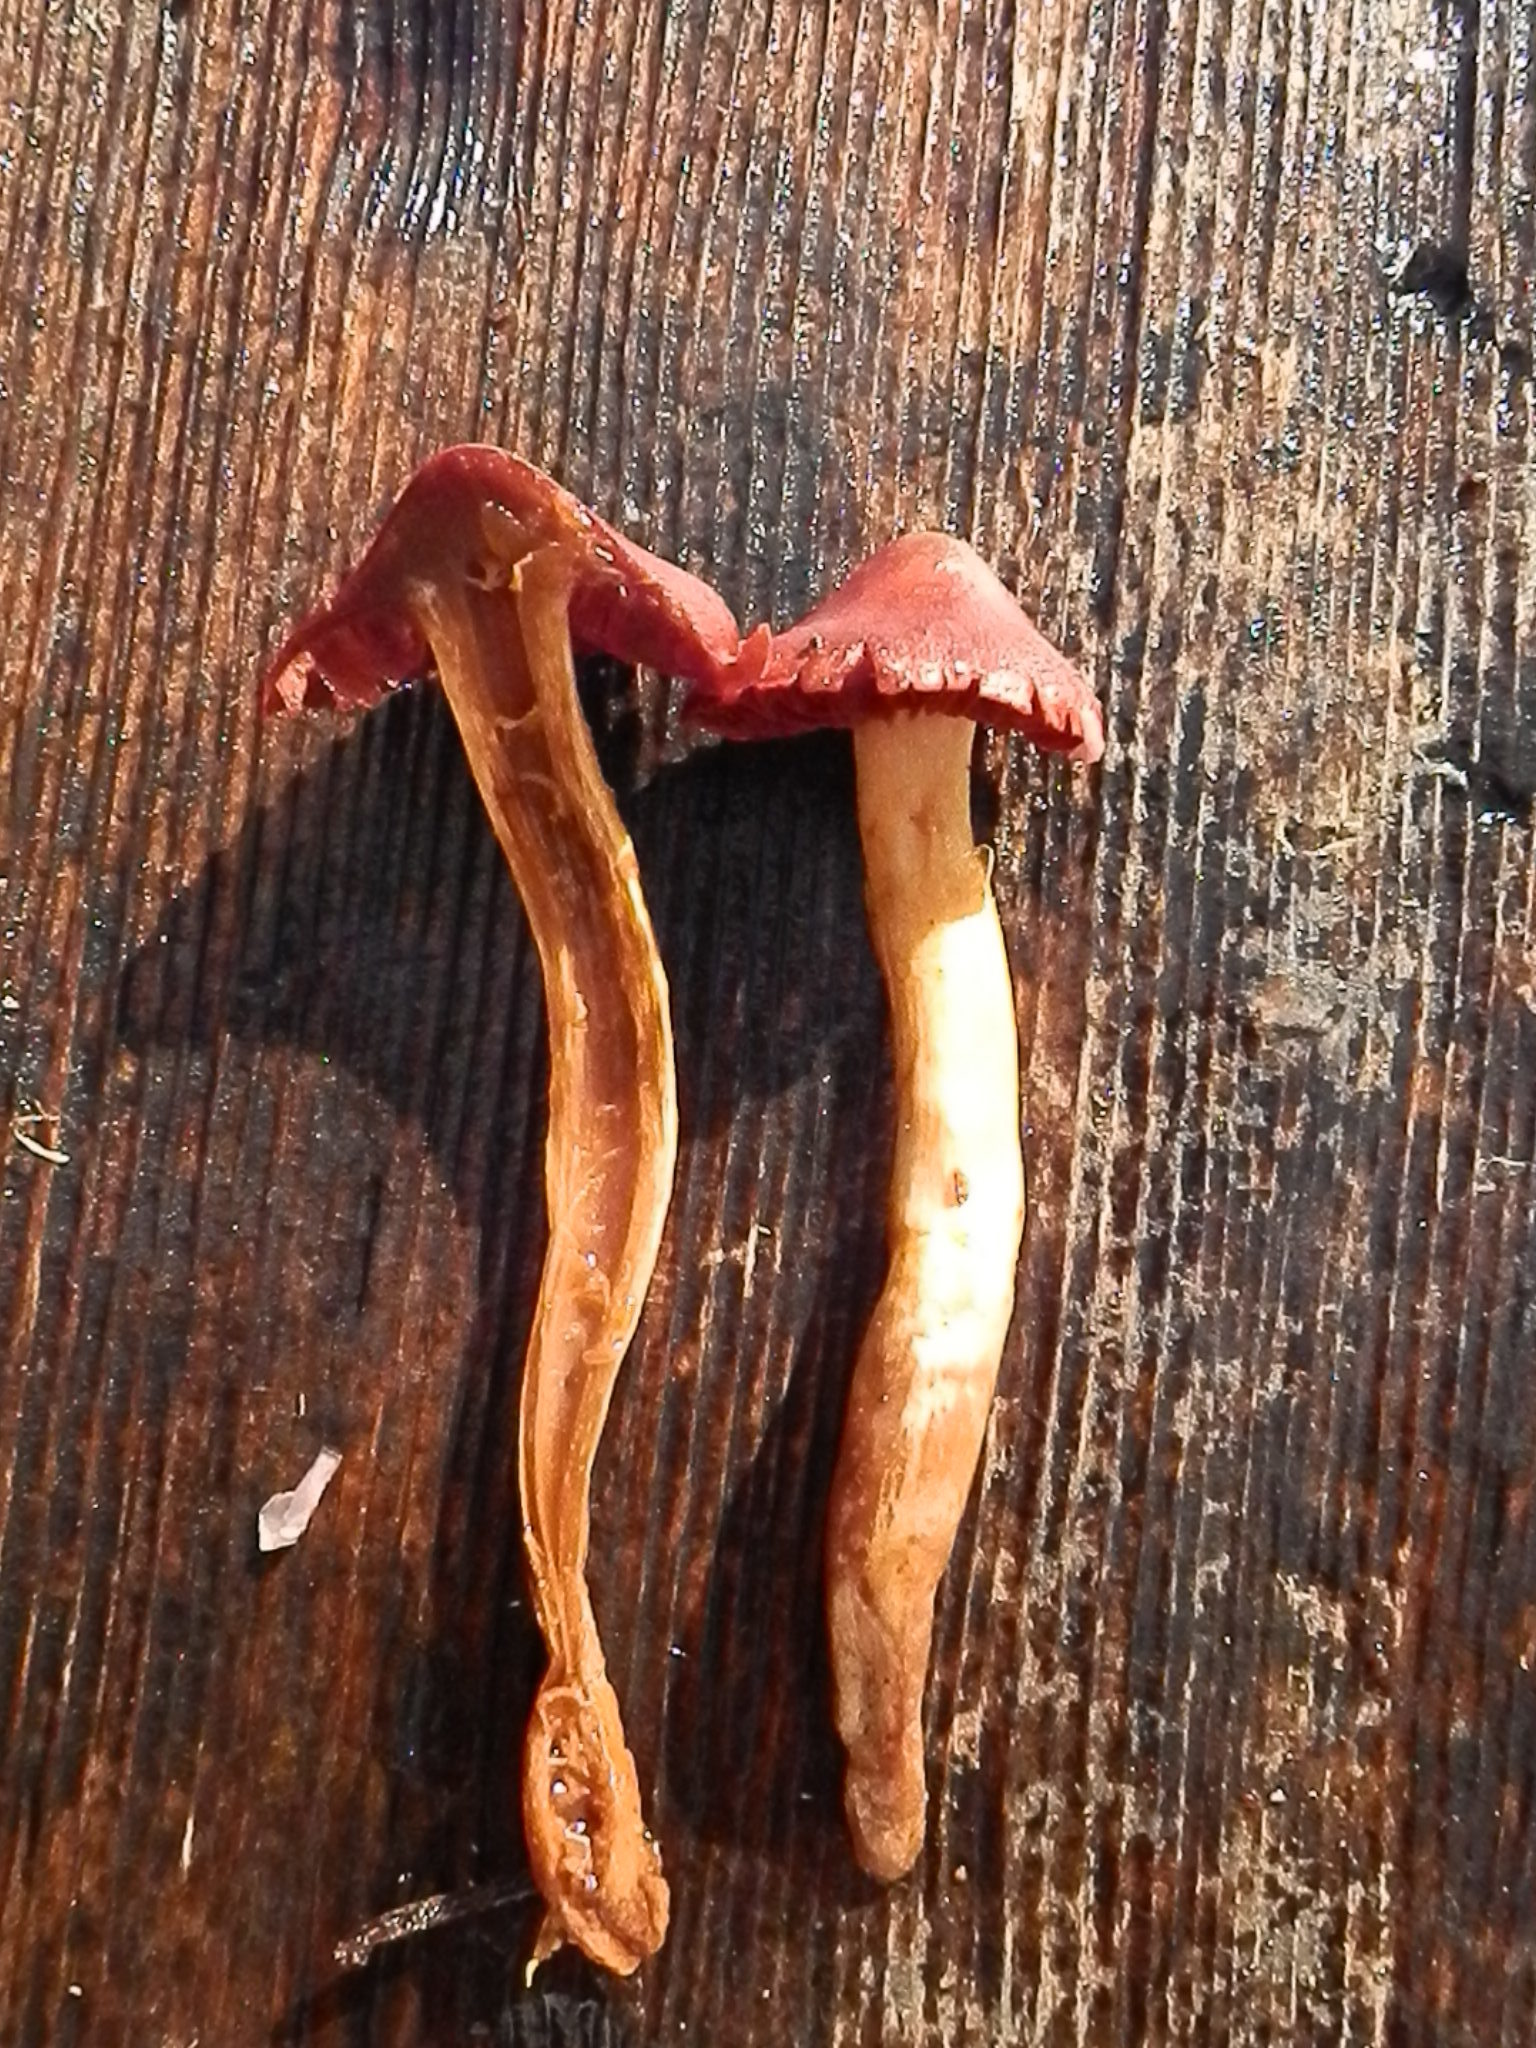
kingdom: Fungi
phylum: Basidiomycota
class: Agaricomycetes
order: Agaricales
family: Cortinariaceae
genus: Cortinarius
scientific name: Cortinarius smithii
